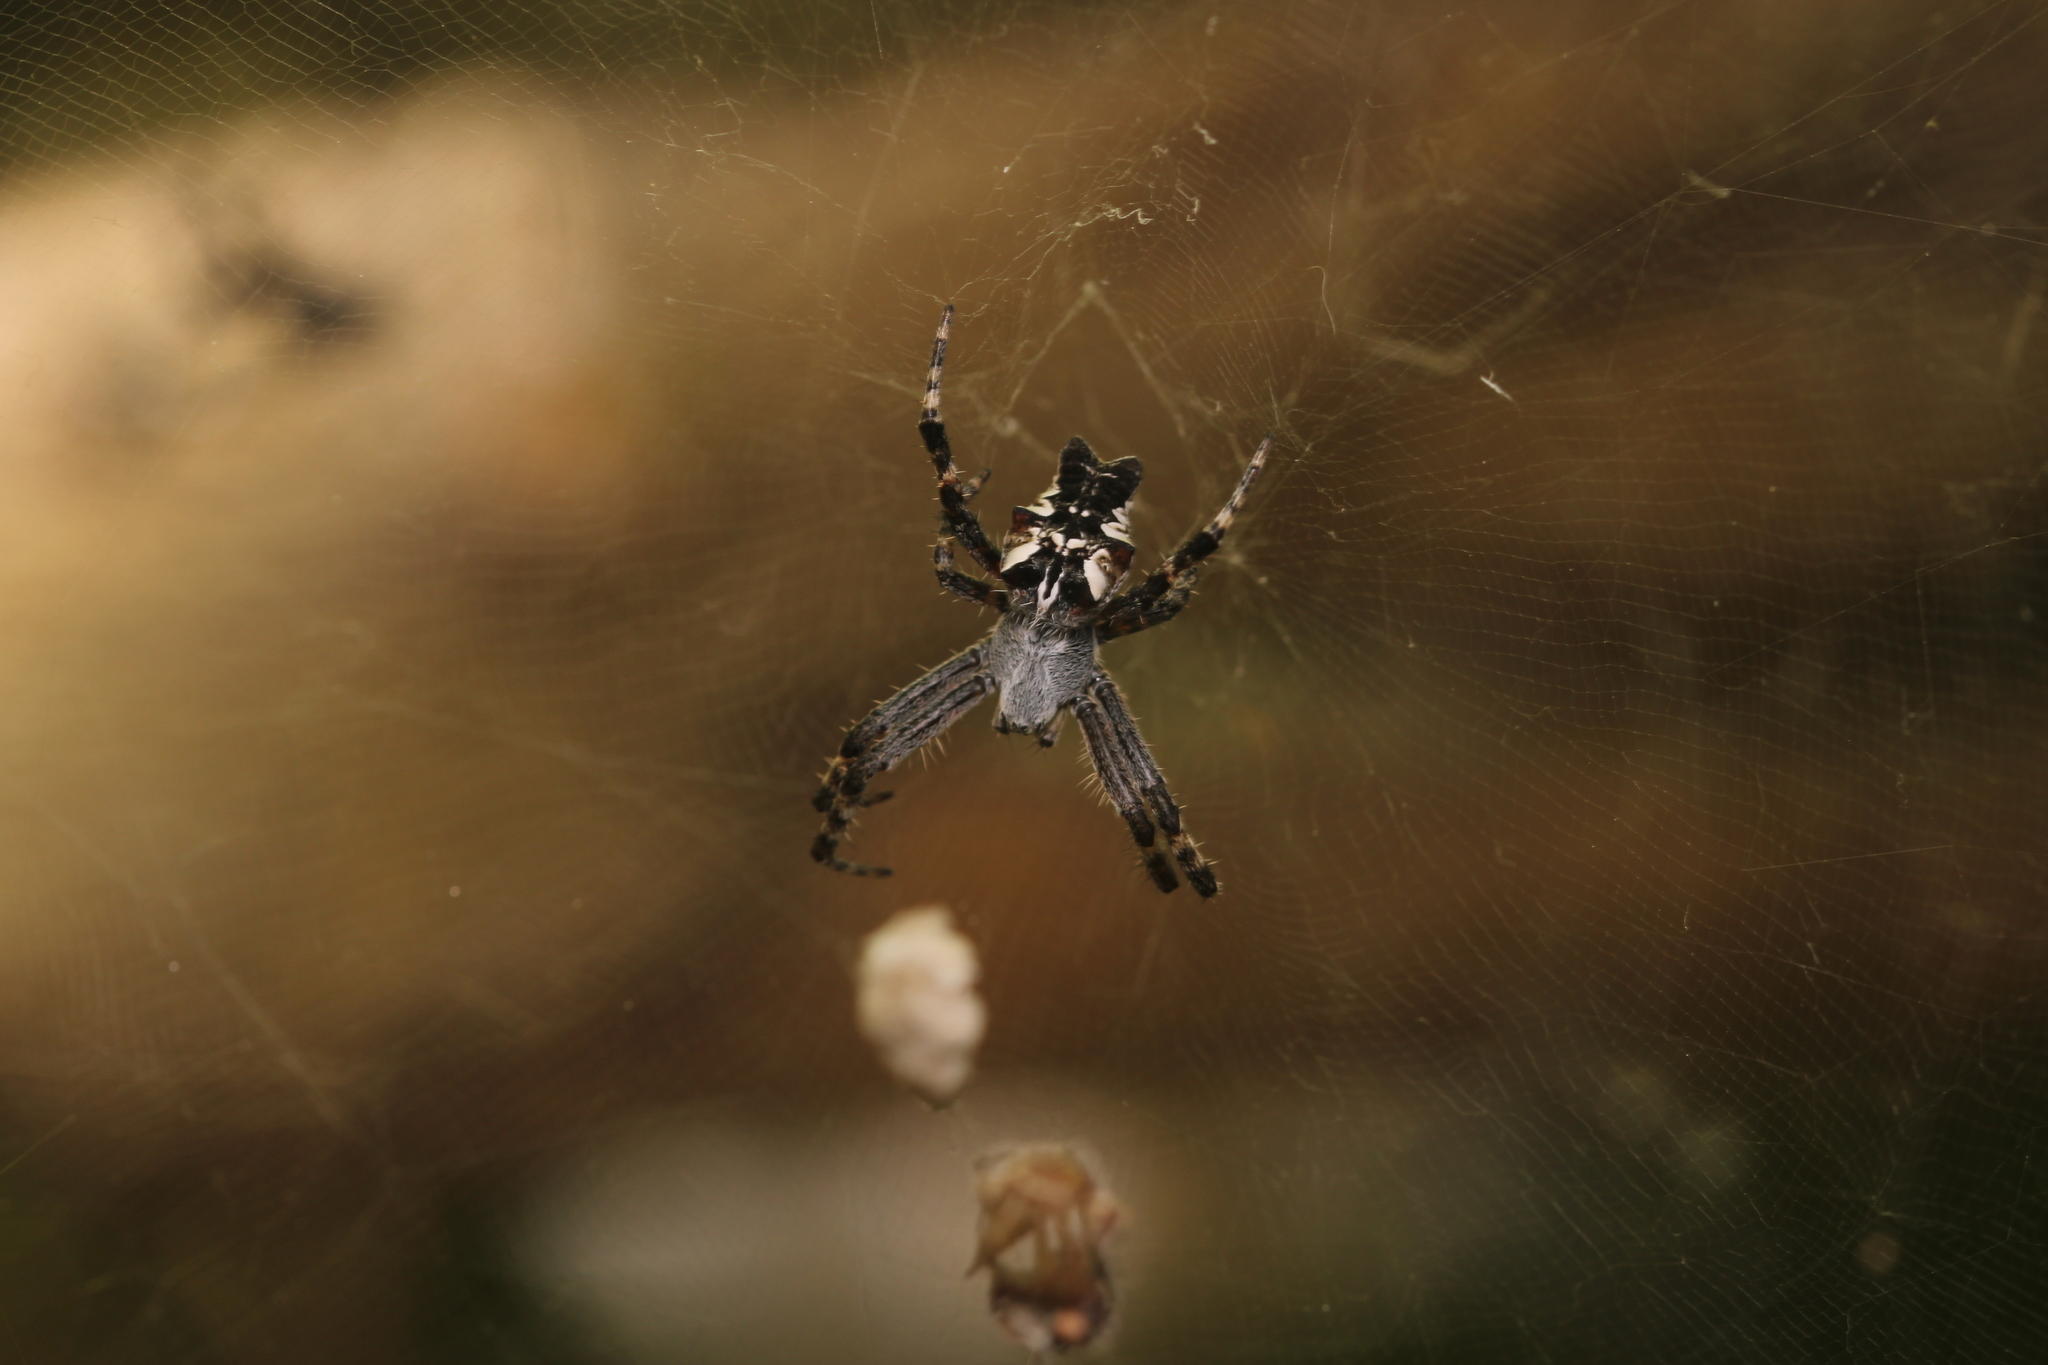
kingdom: Animalia
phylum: Arthropoda
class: Arachnida
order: Araneae
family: Araneidae
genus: Cyrtophora
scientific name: Cyrtophora citricola
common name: Orb weavers
